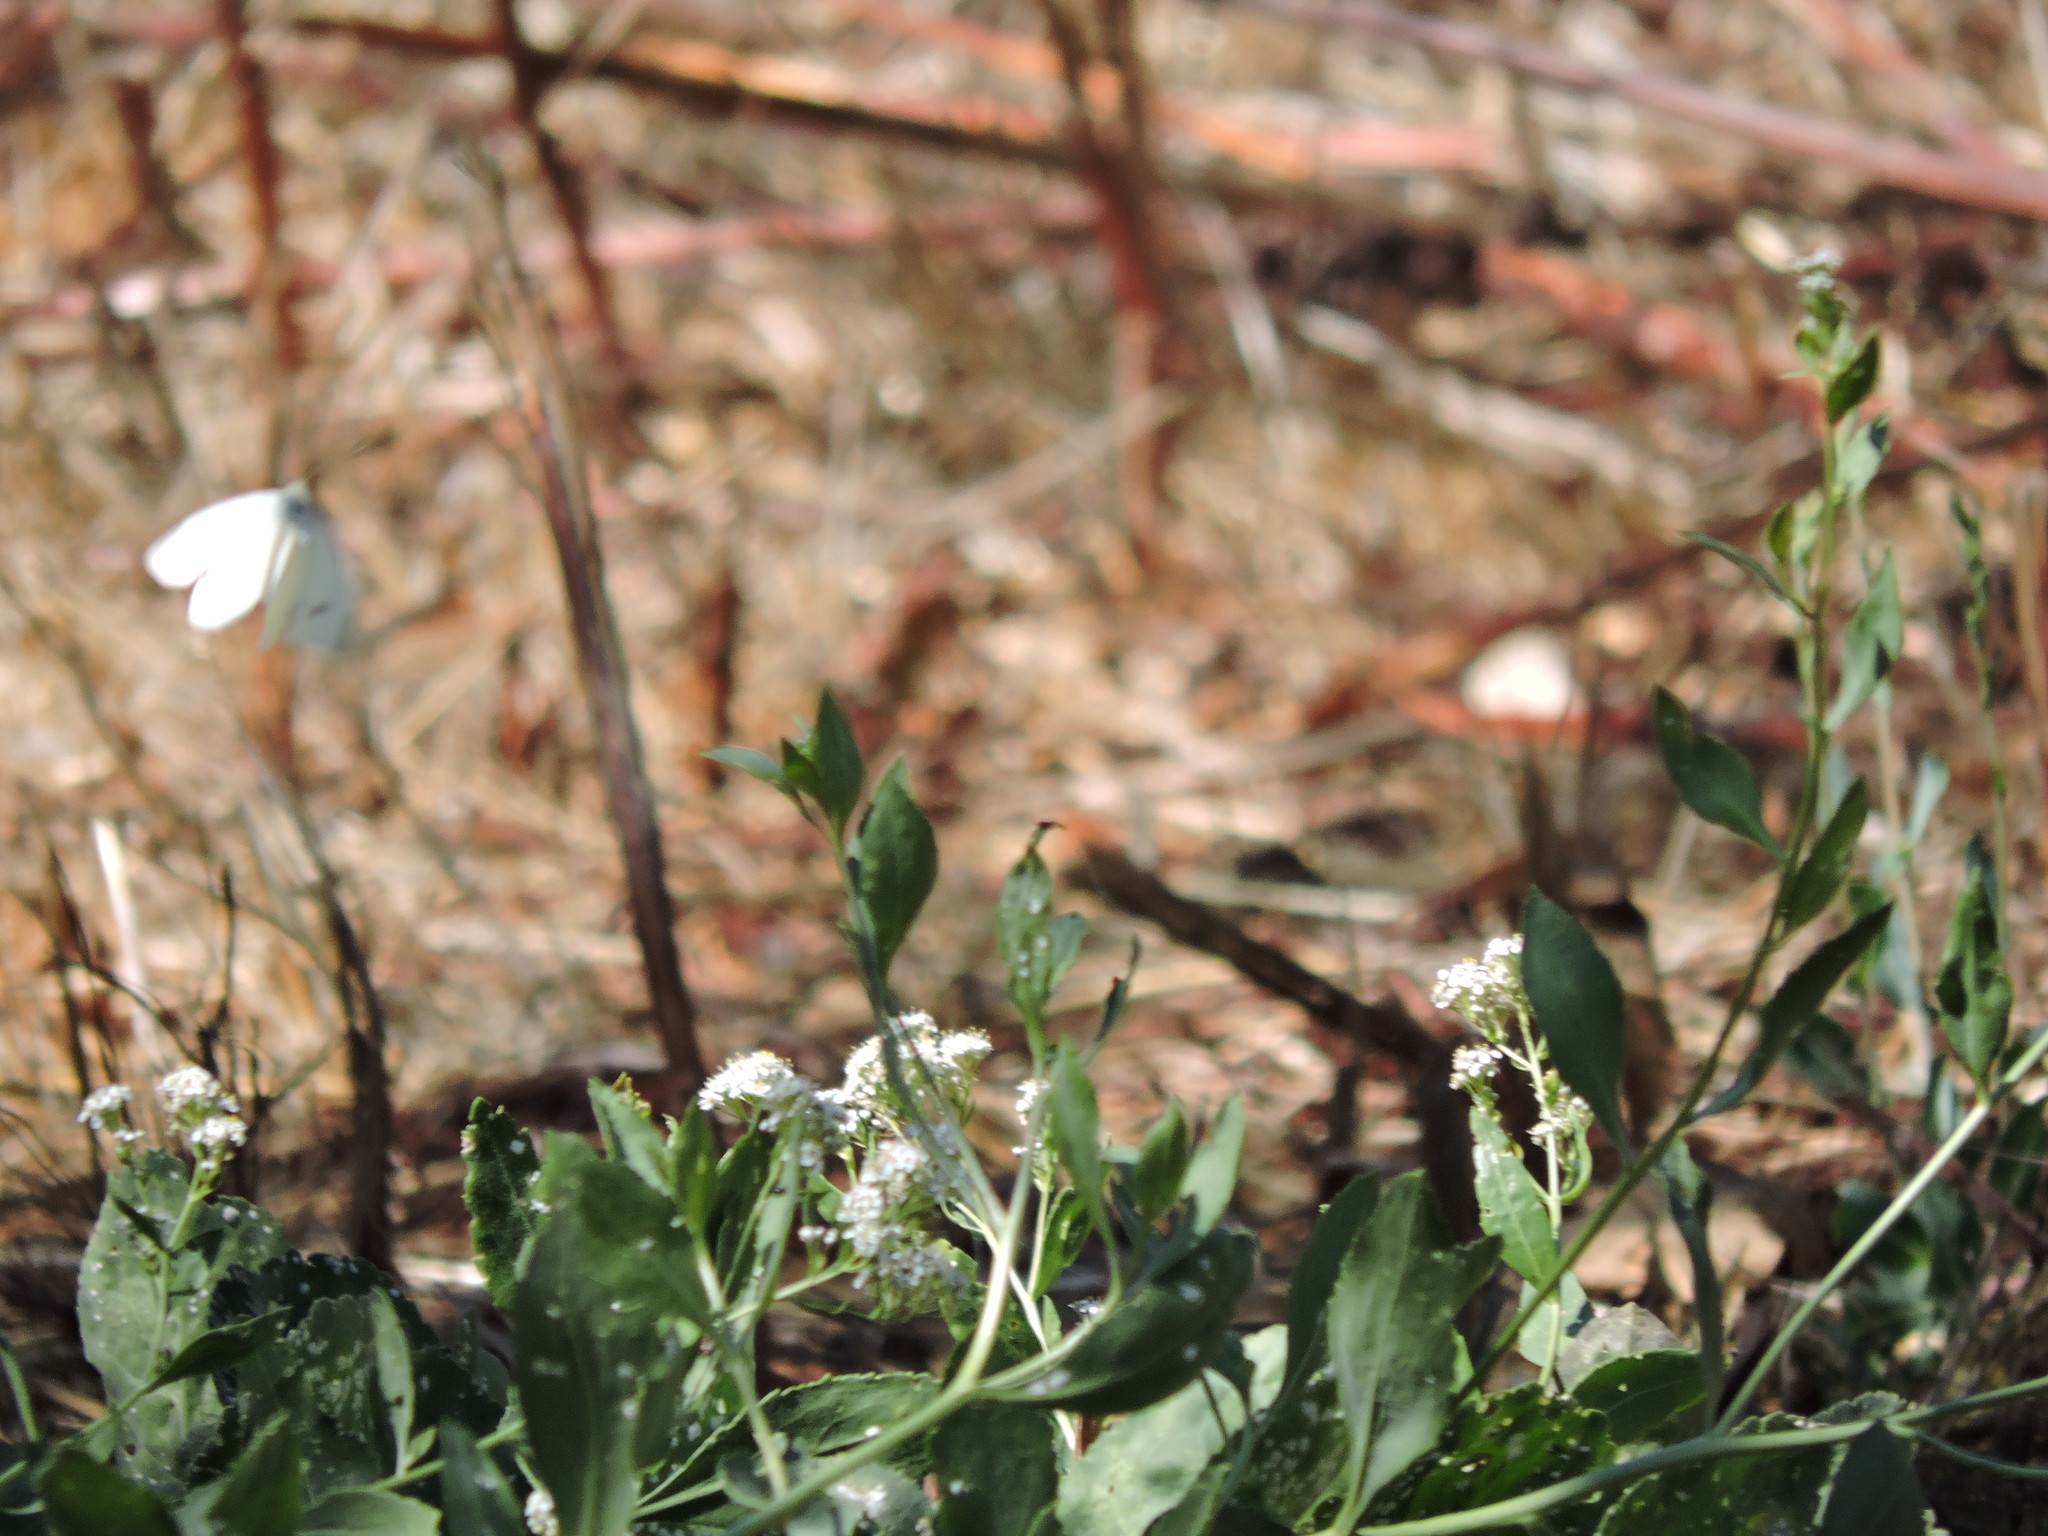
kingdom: Animalia
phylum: Arthropoda
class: Insecta
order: Lepidoptera
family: Pieridae
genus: Pieris
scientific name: Pieris rapae
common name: Small white
